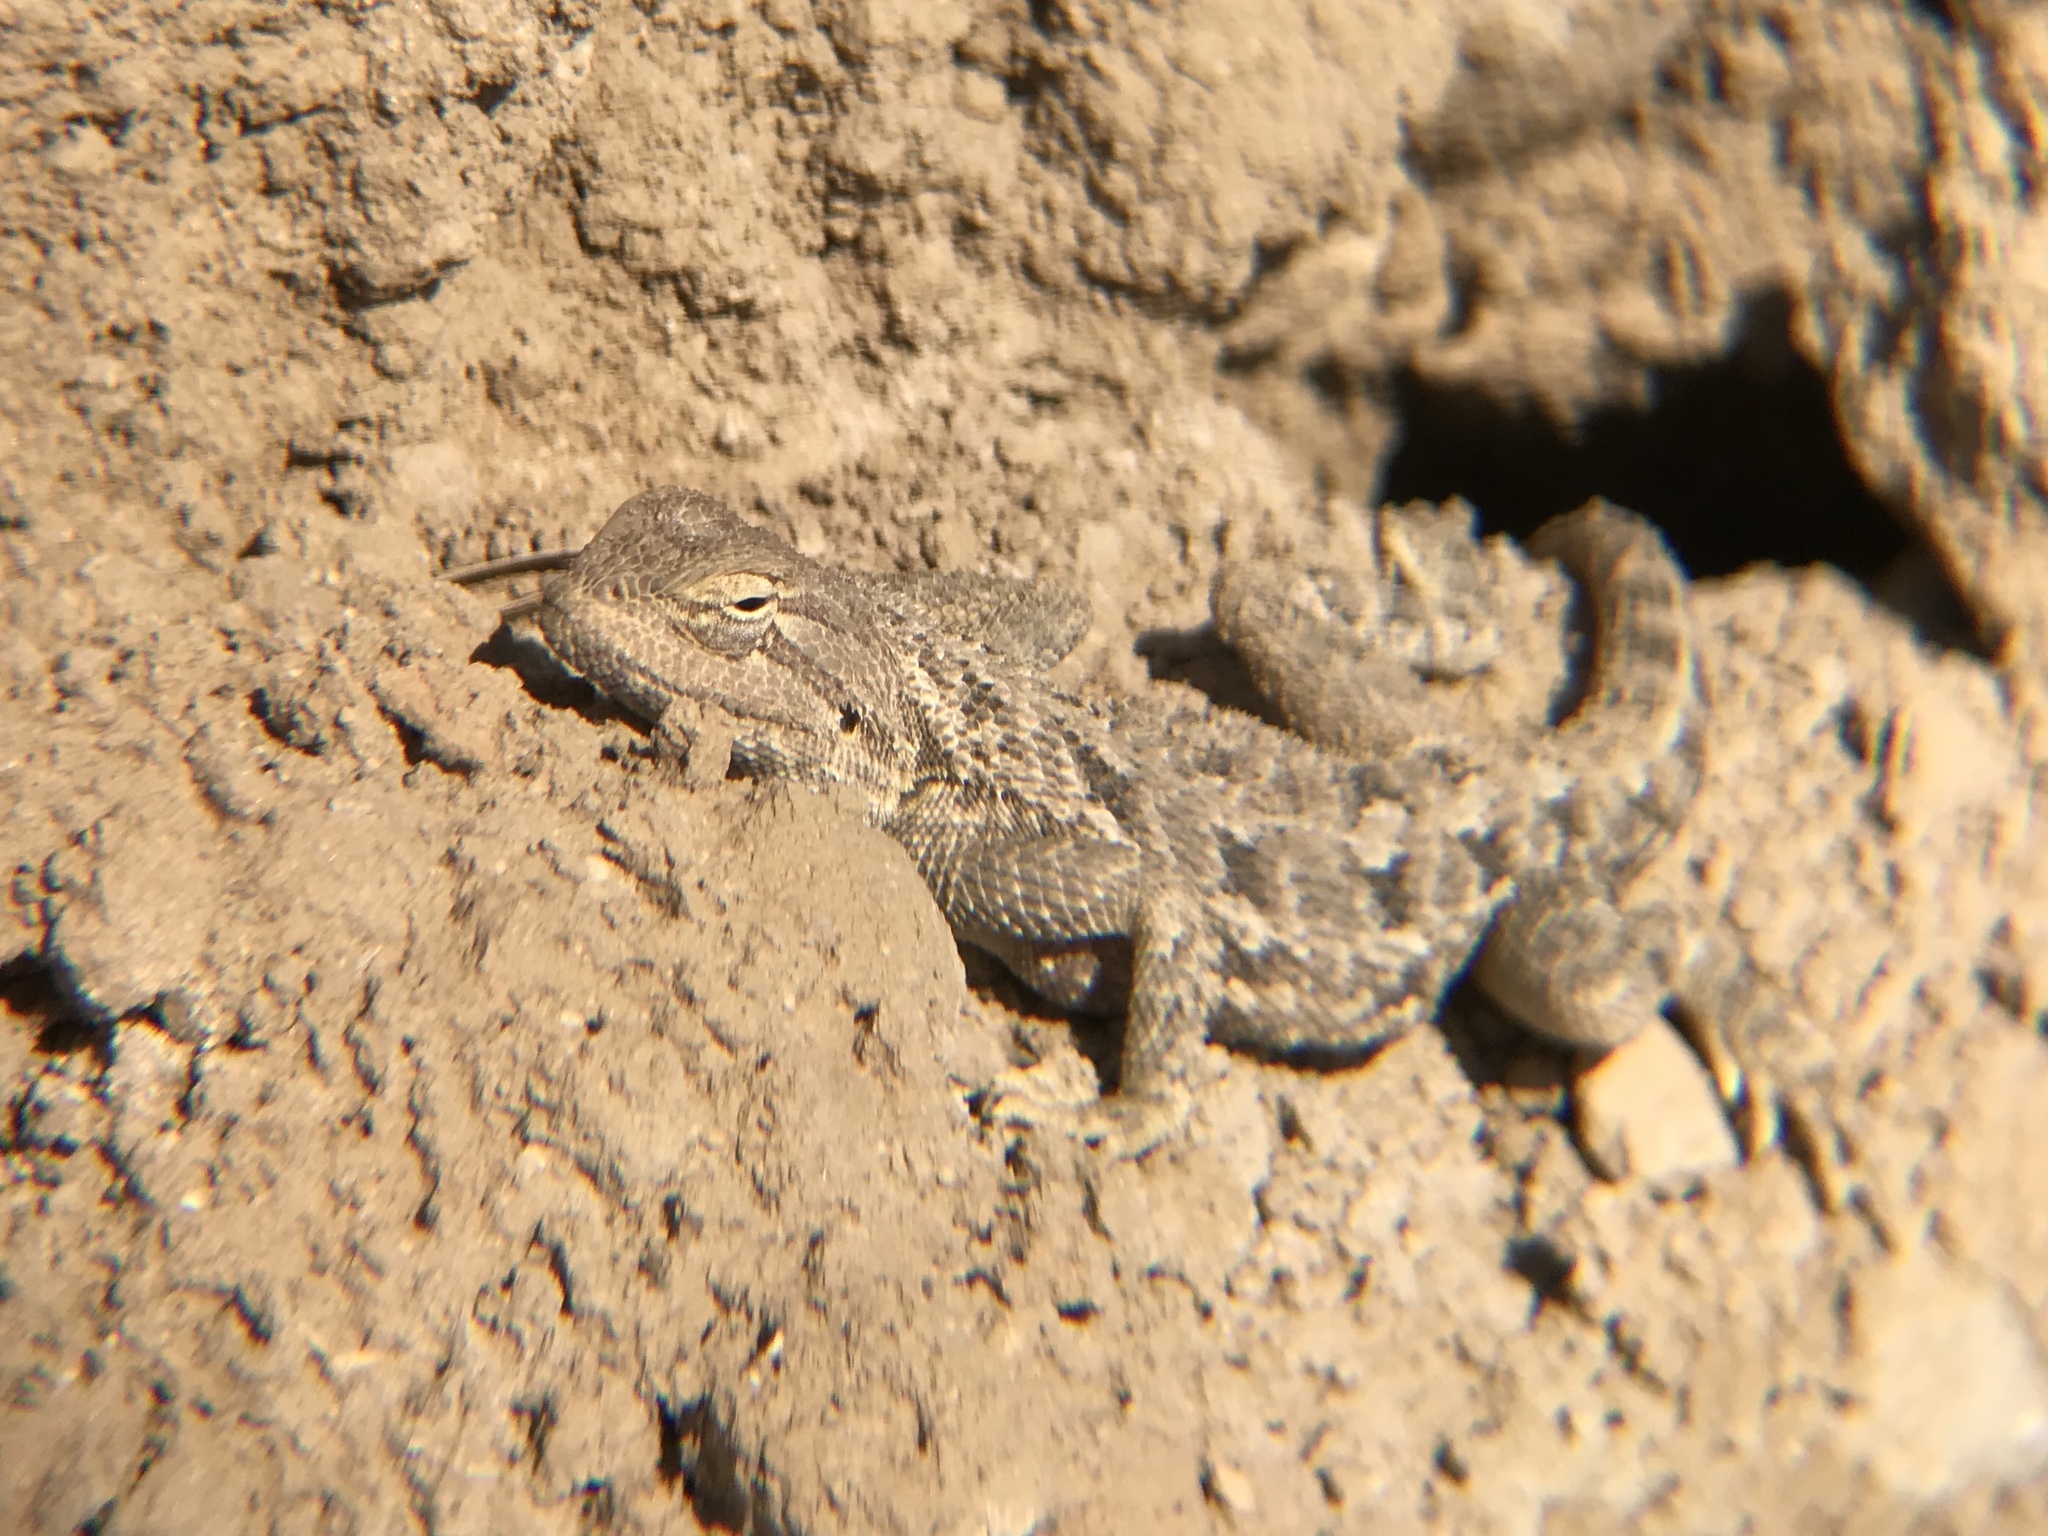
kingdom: Animalia
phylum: Chordata
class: Squamata
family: Agamidae
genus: Trapelus
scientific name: Trapelus agilis
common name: Brilliant ground agama
